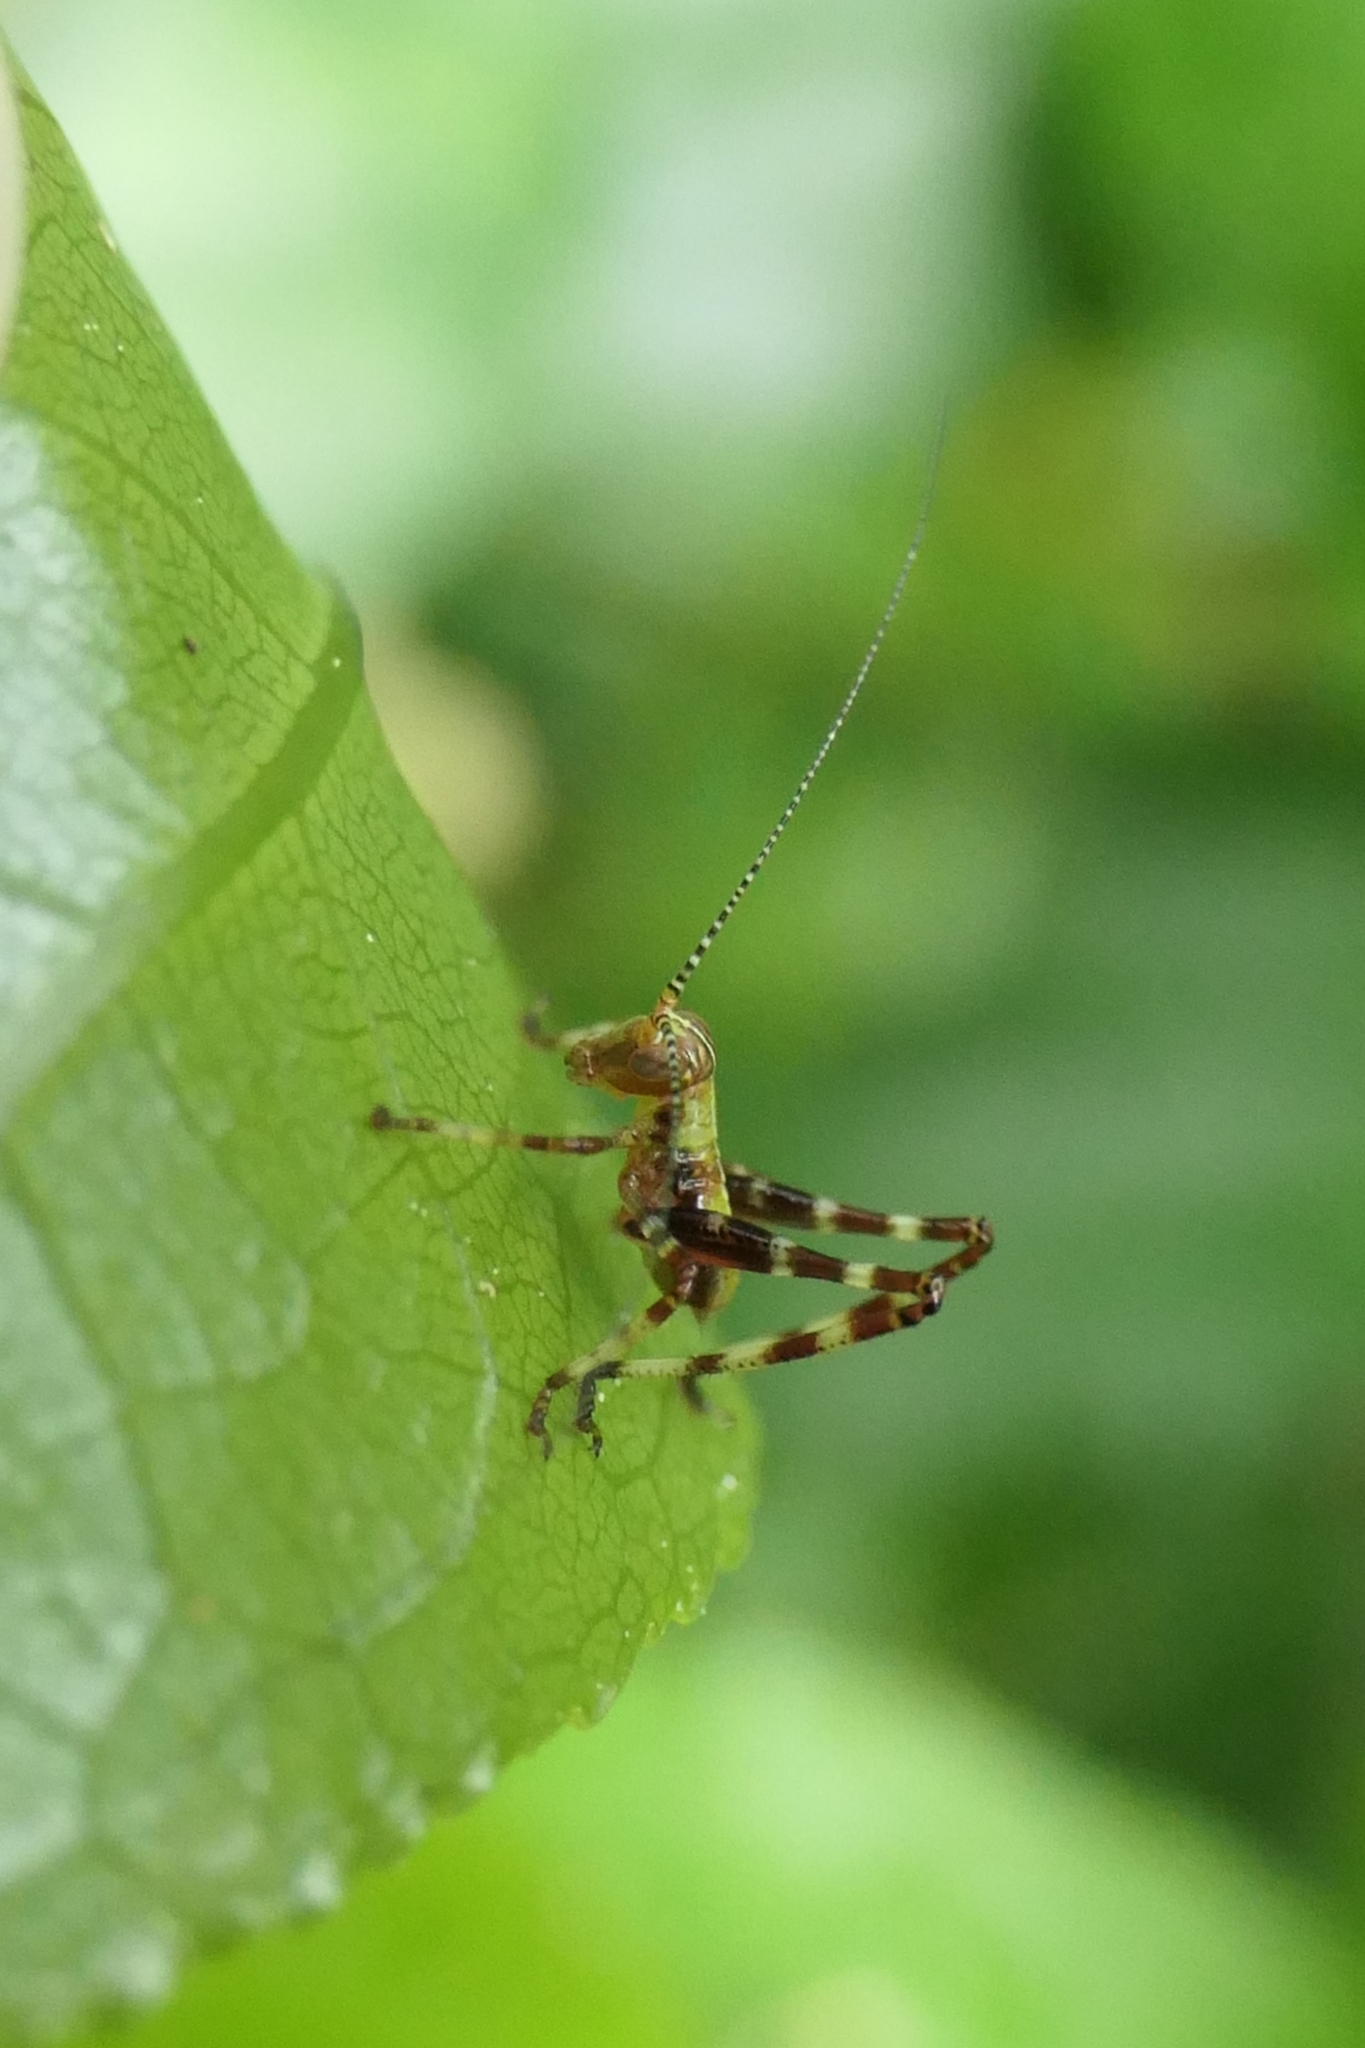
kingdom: Animalia
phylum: Arthropoda
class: Insecta
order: Orthoptera
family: Tettigoniidae
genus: Caedicia
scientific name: Caedicia simplex
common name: Common garden katydid
